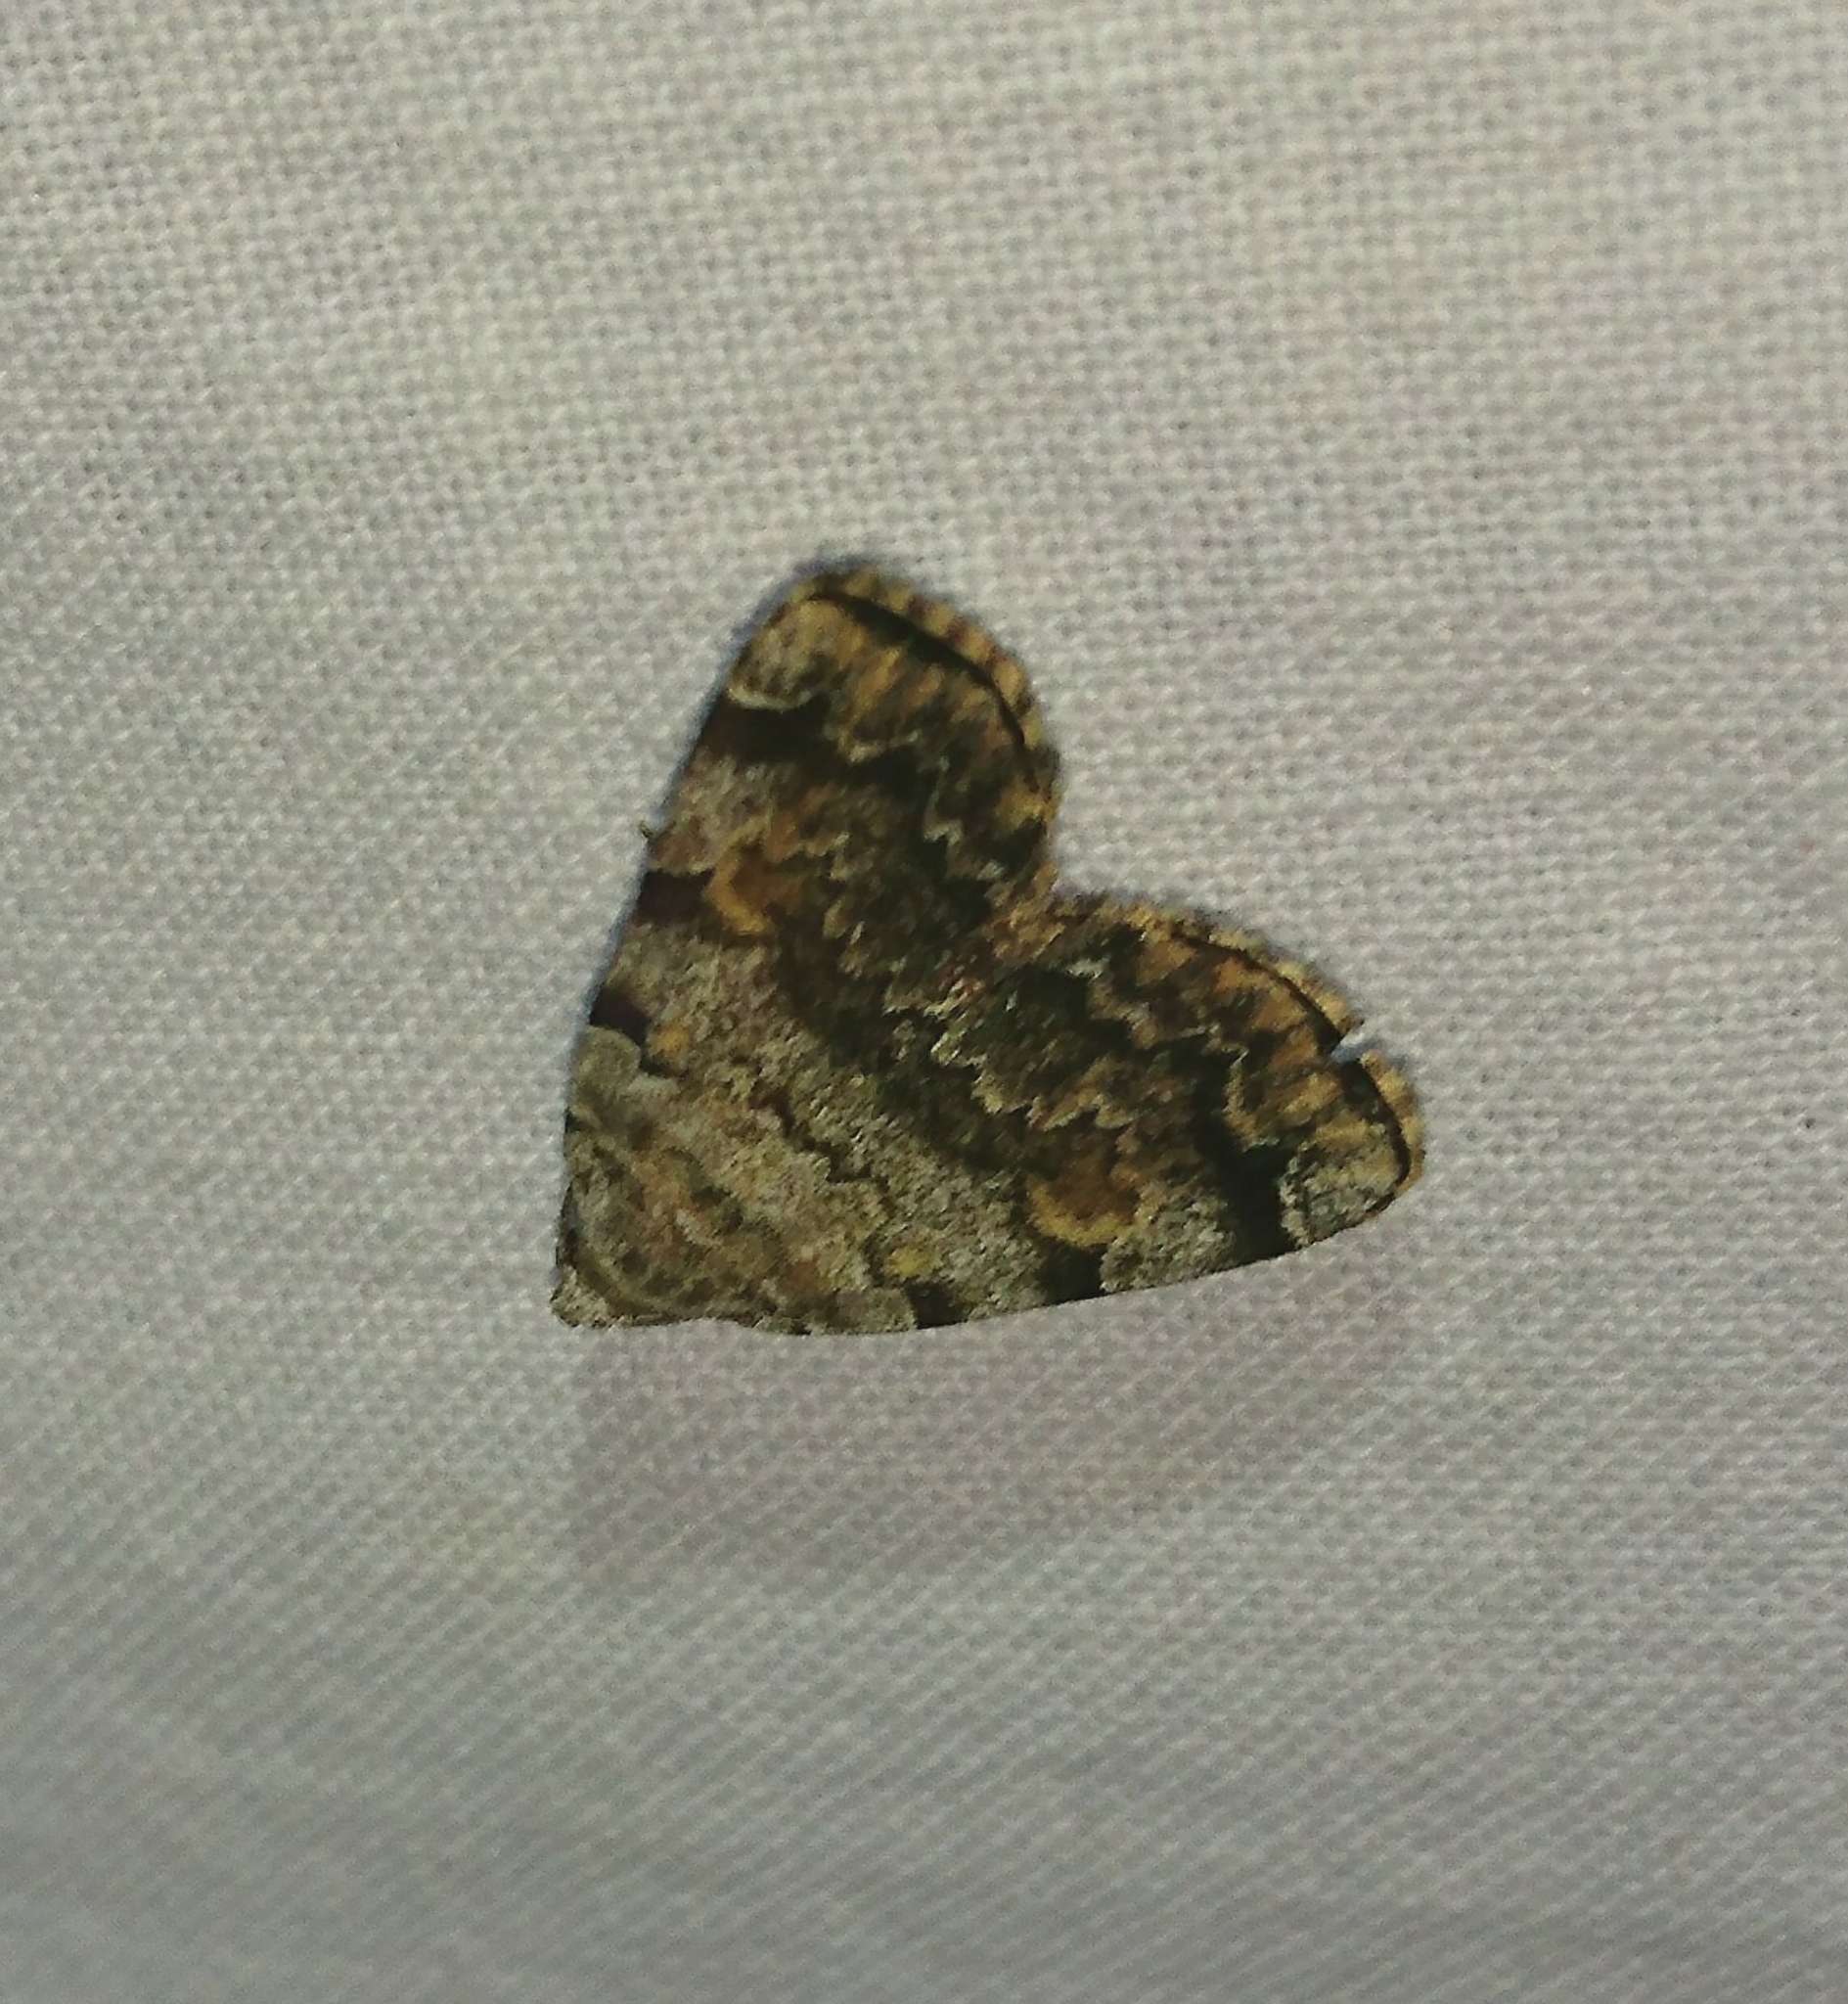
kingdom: Animalia
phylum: Arthropoda
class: Insecta
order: Lepidoptera
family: Erebidae
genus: Idia
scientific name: Idia americalis
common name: American idia moth
